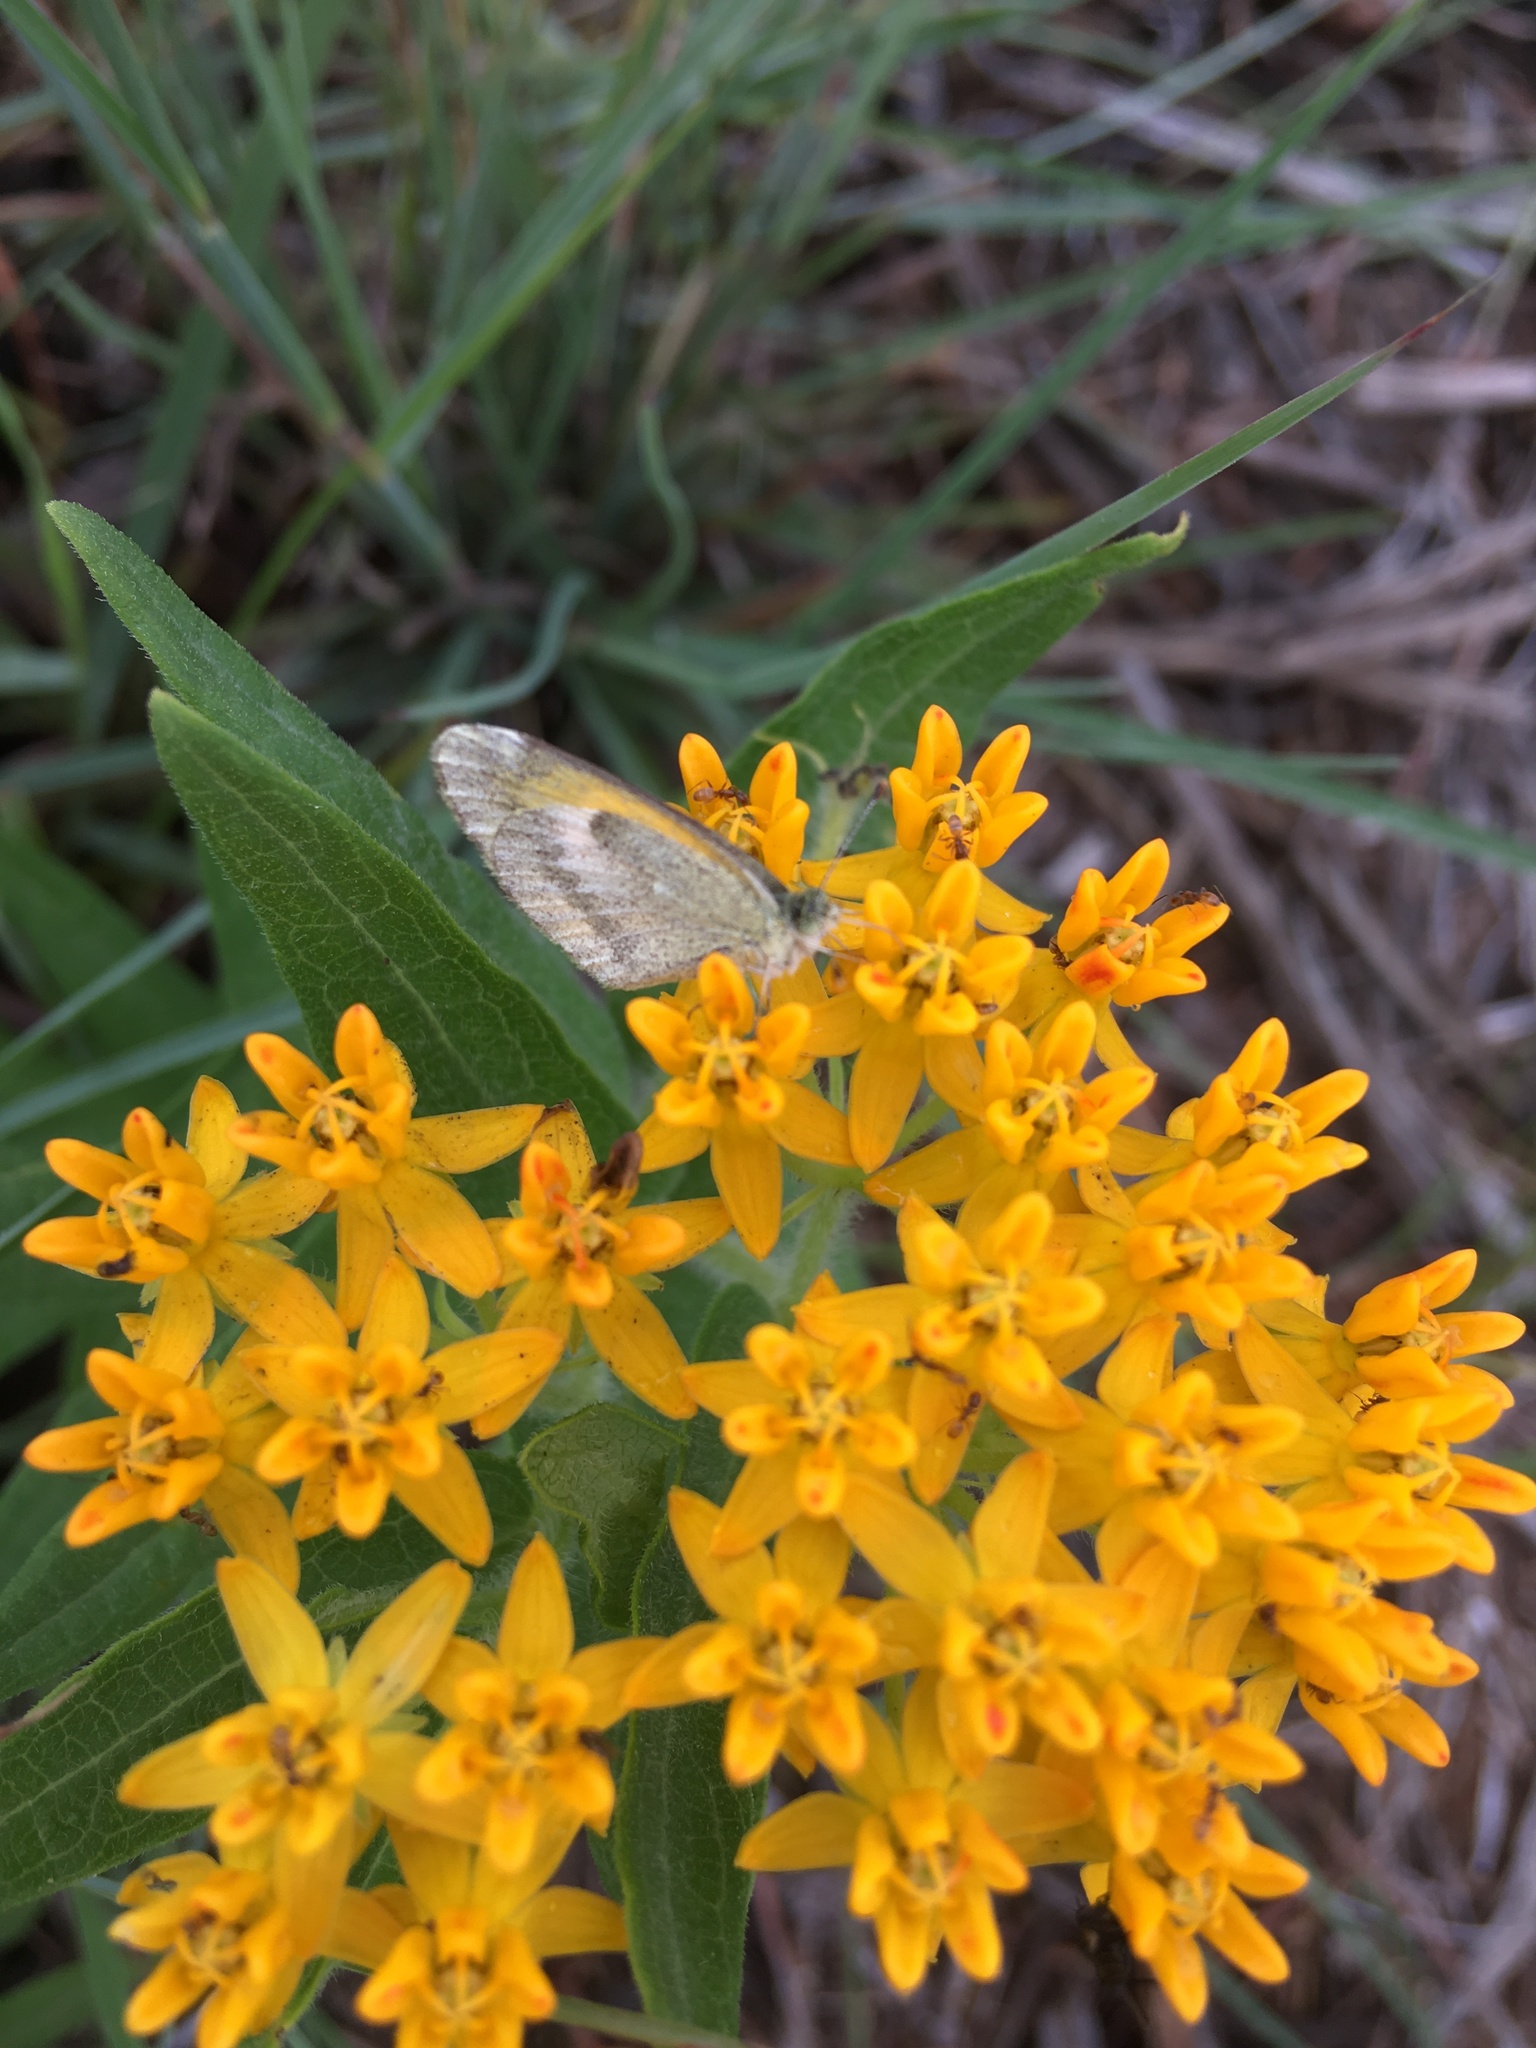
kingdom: Animalia
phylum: Arthropoda
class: Insecta
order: Lepidoptera
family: Pieridae
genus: Nathalis
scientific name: Nathalis iole
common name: Dainty sulphur
